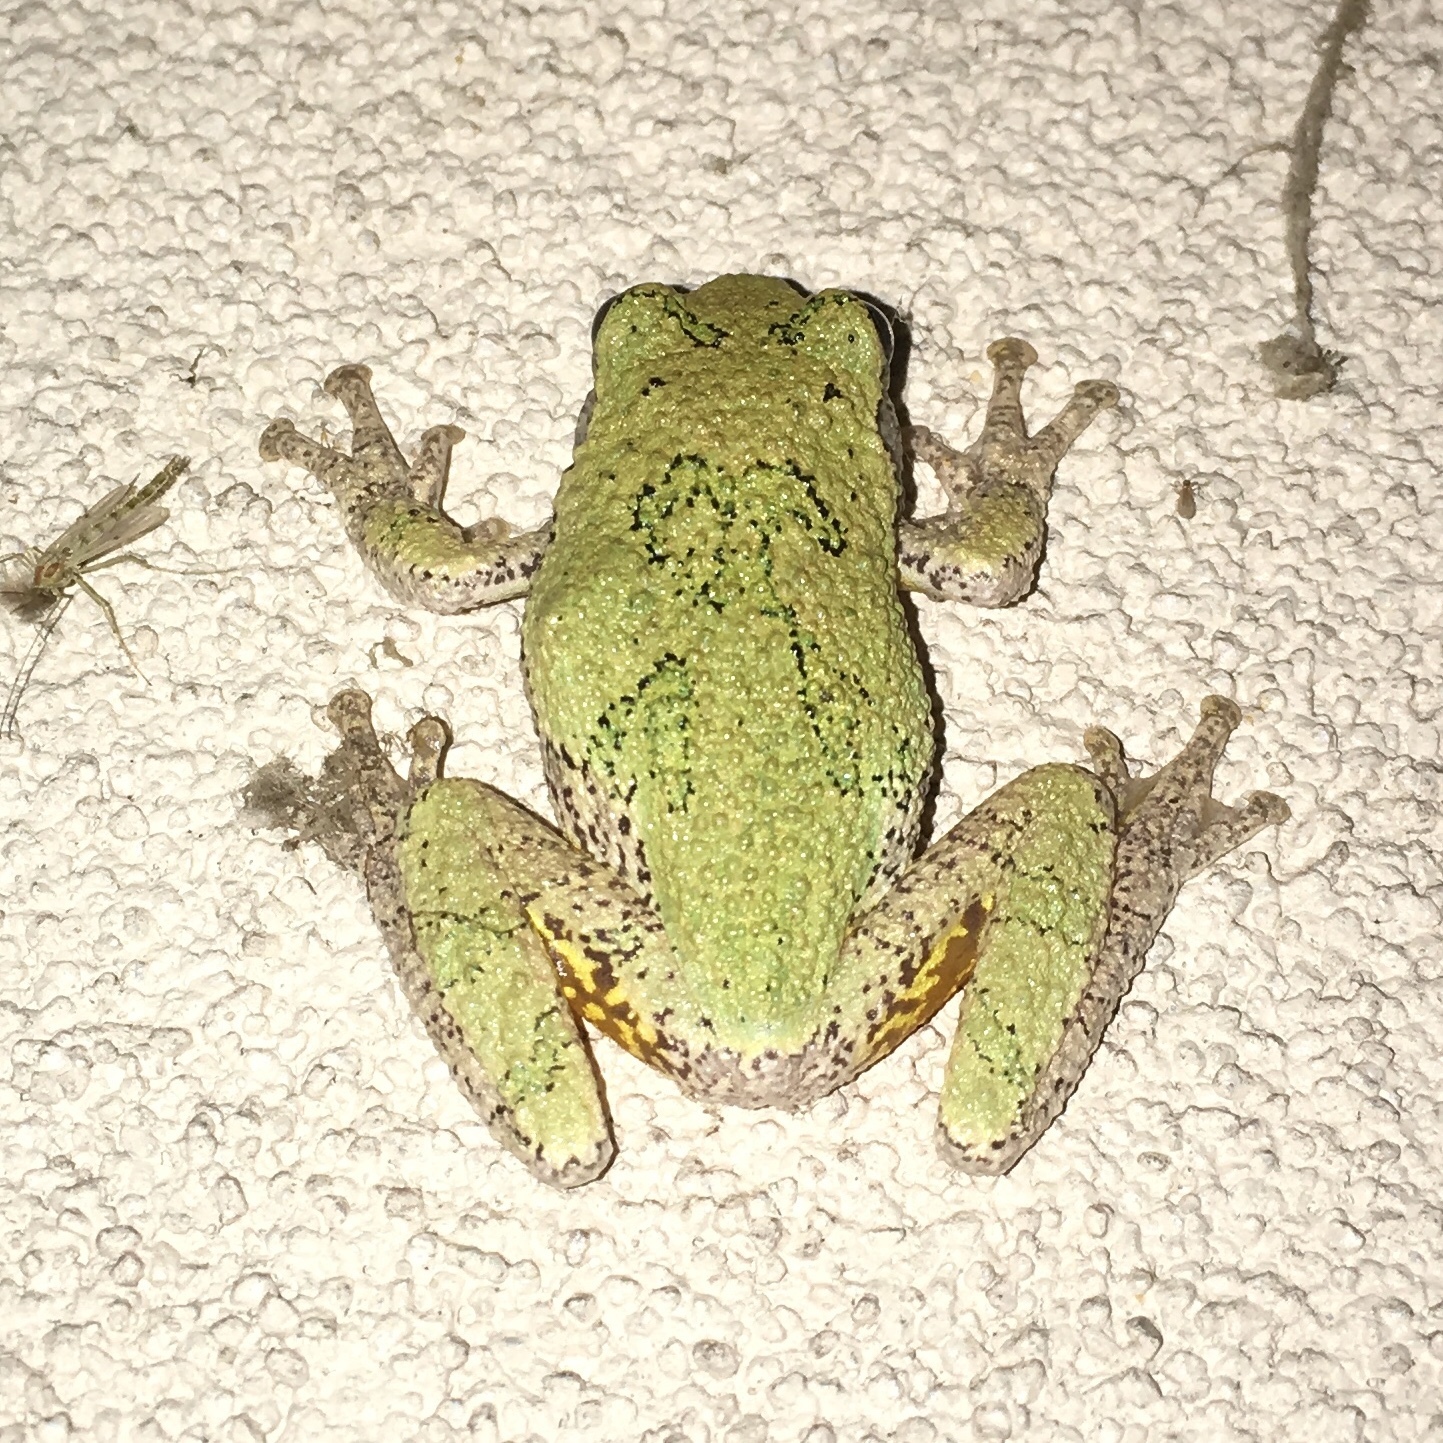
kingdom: Animalia
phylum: Chordata
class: Amphibia
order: Anura
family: Hylidae
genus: Dryophytes
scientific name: Dryophytes versicolor
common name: Gray treefrog
